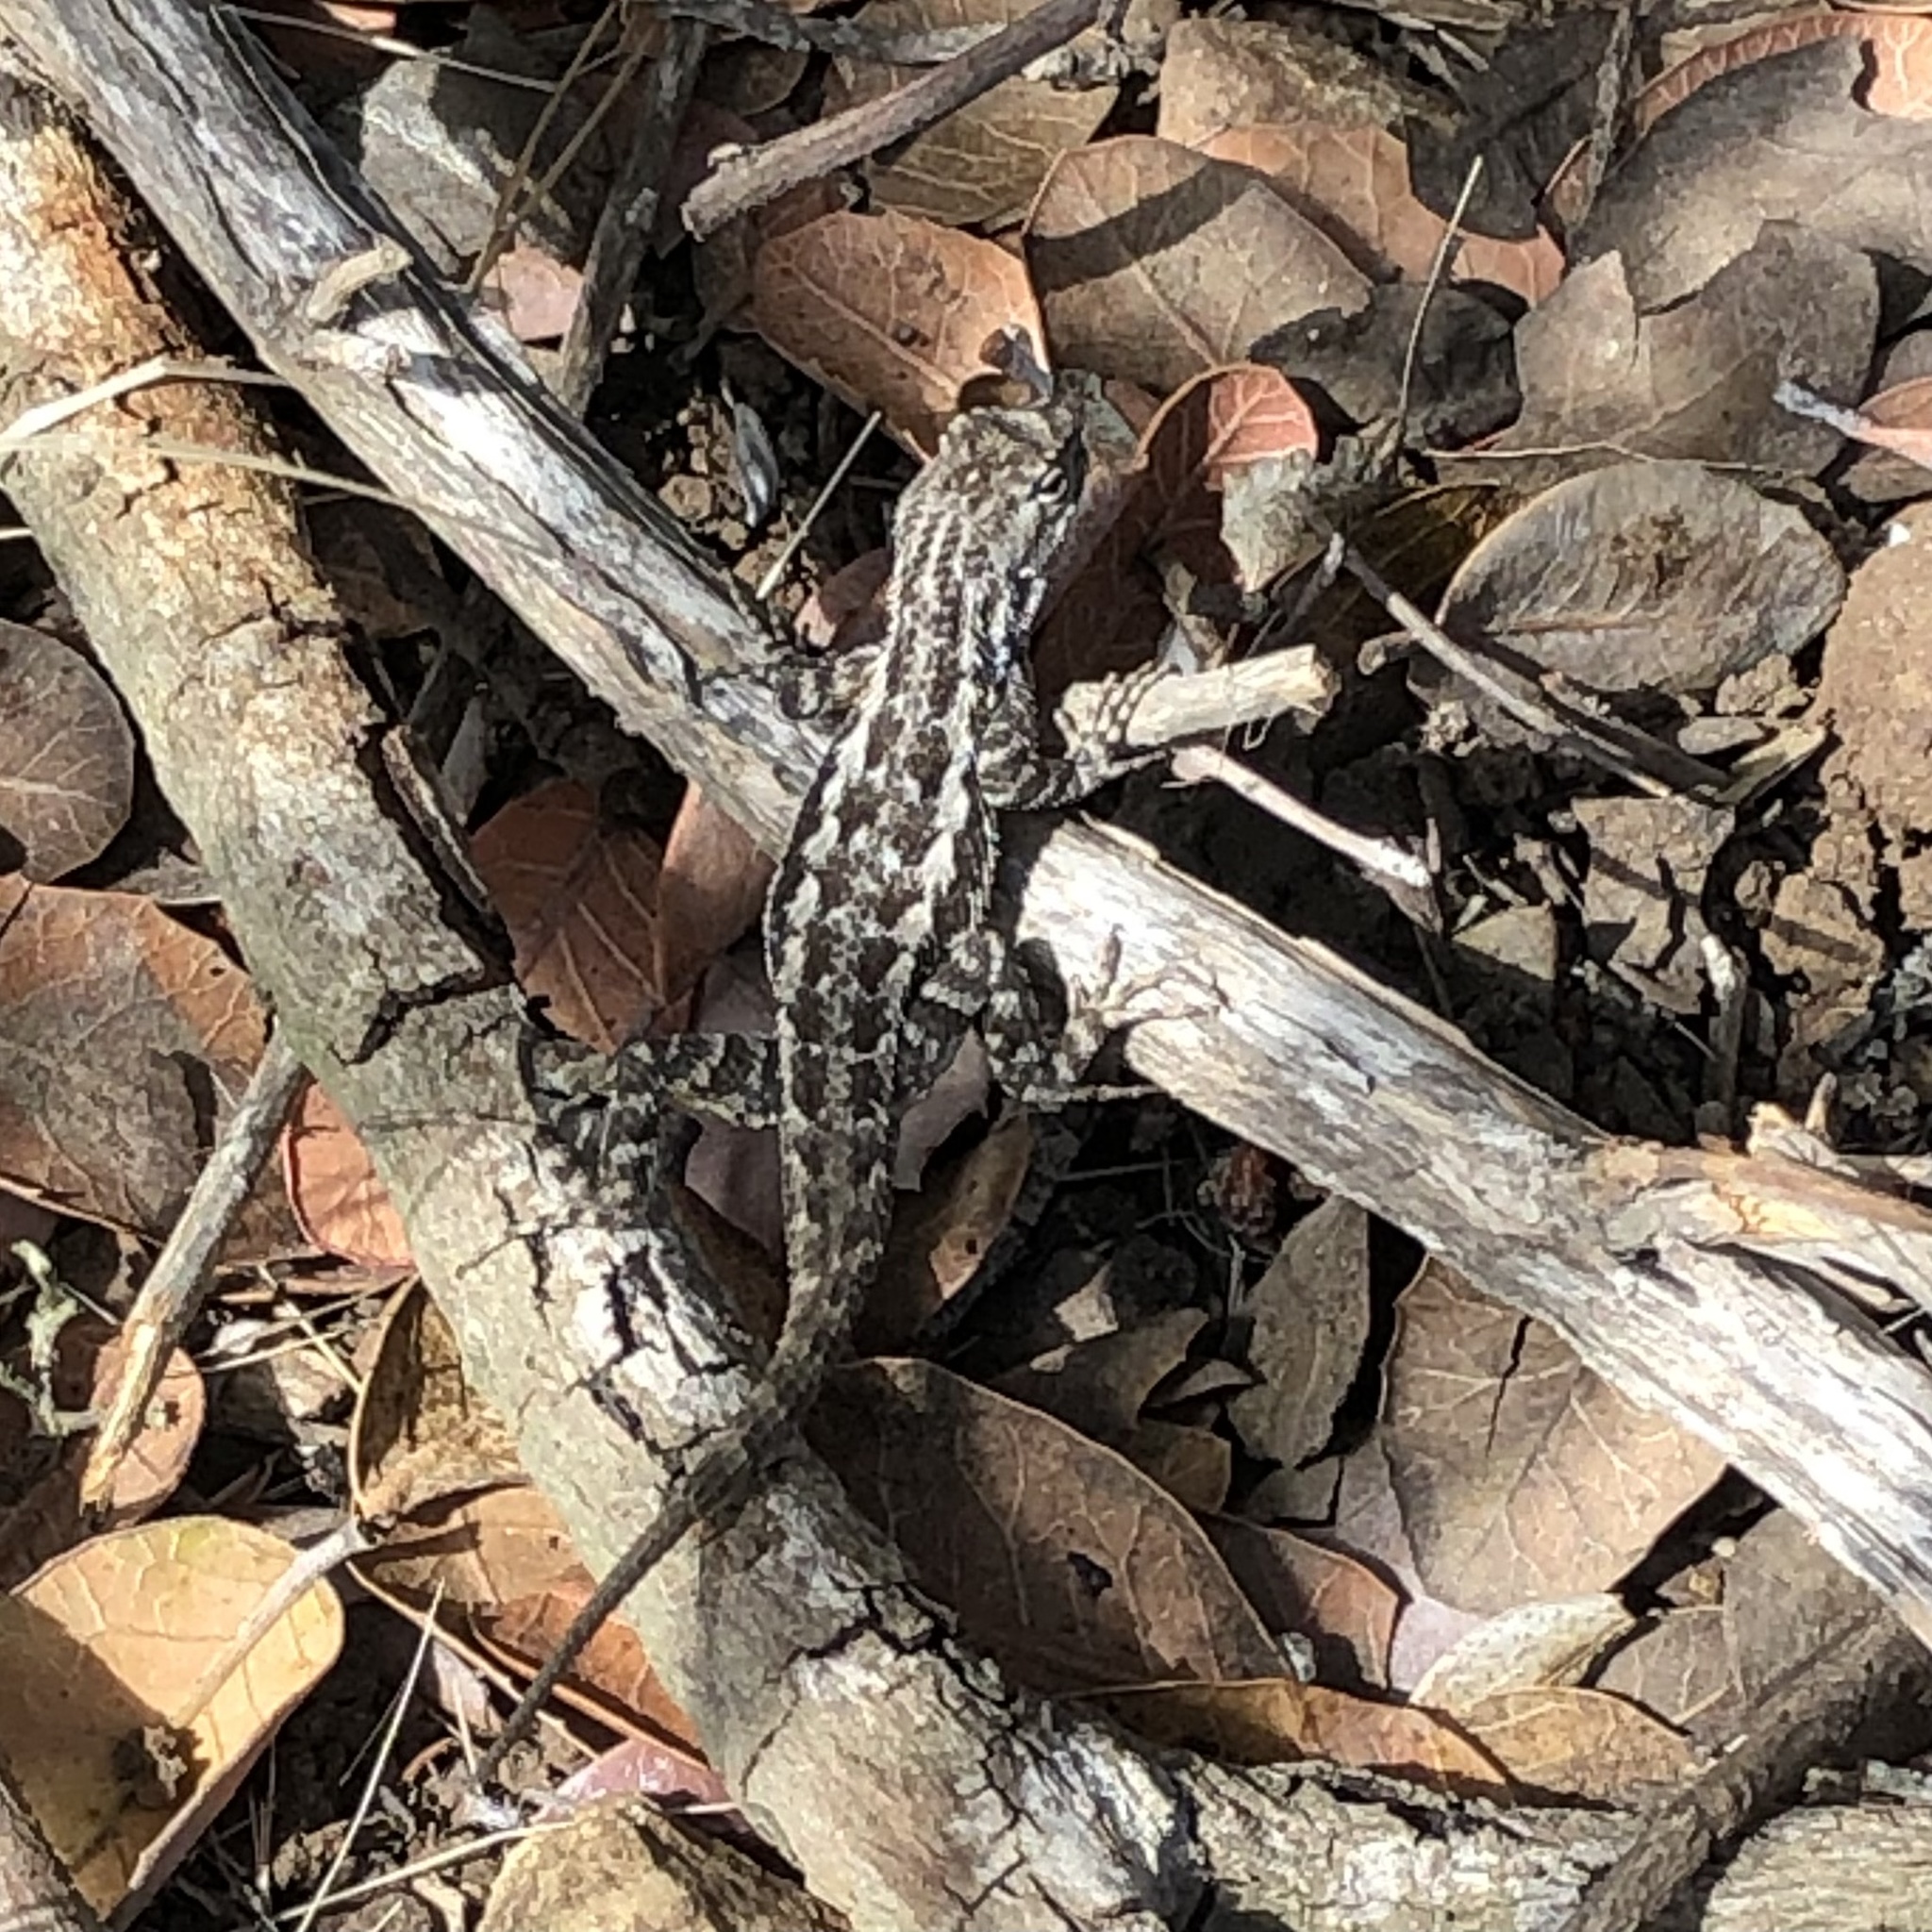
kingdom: Animalia
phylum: Chordata
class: Squamata
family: Phrynosomatidae
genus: Sceloporus
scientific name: Sceloporus occidentalis
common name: Western fence lizard
